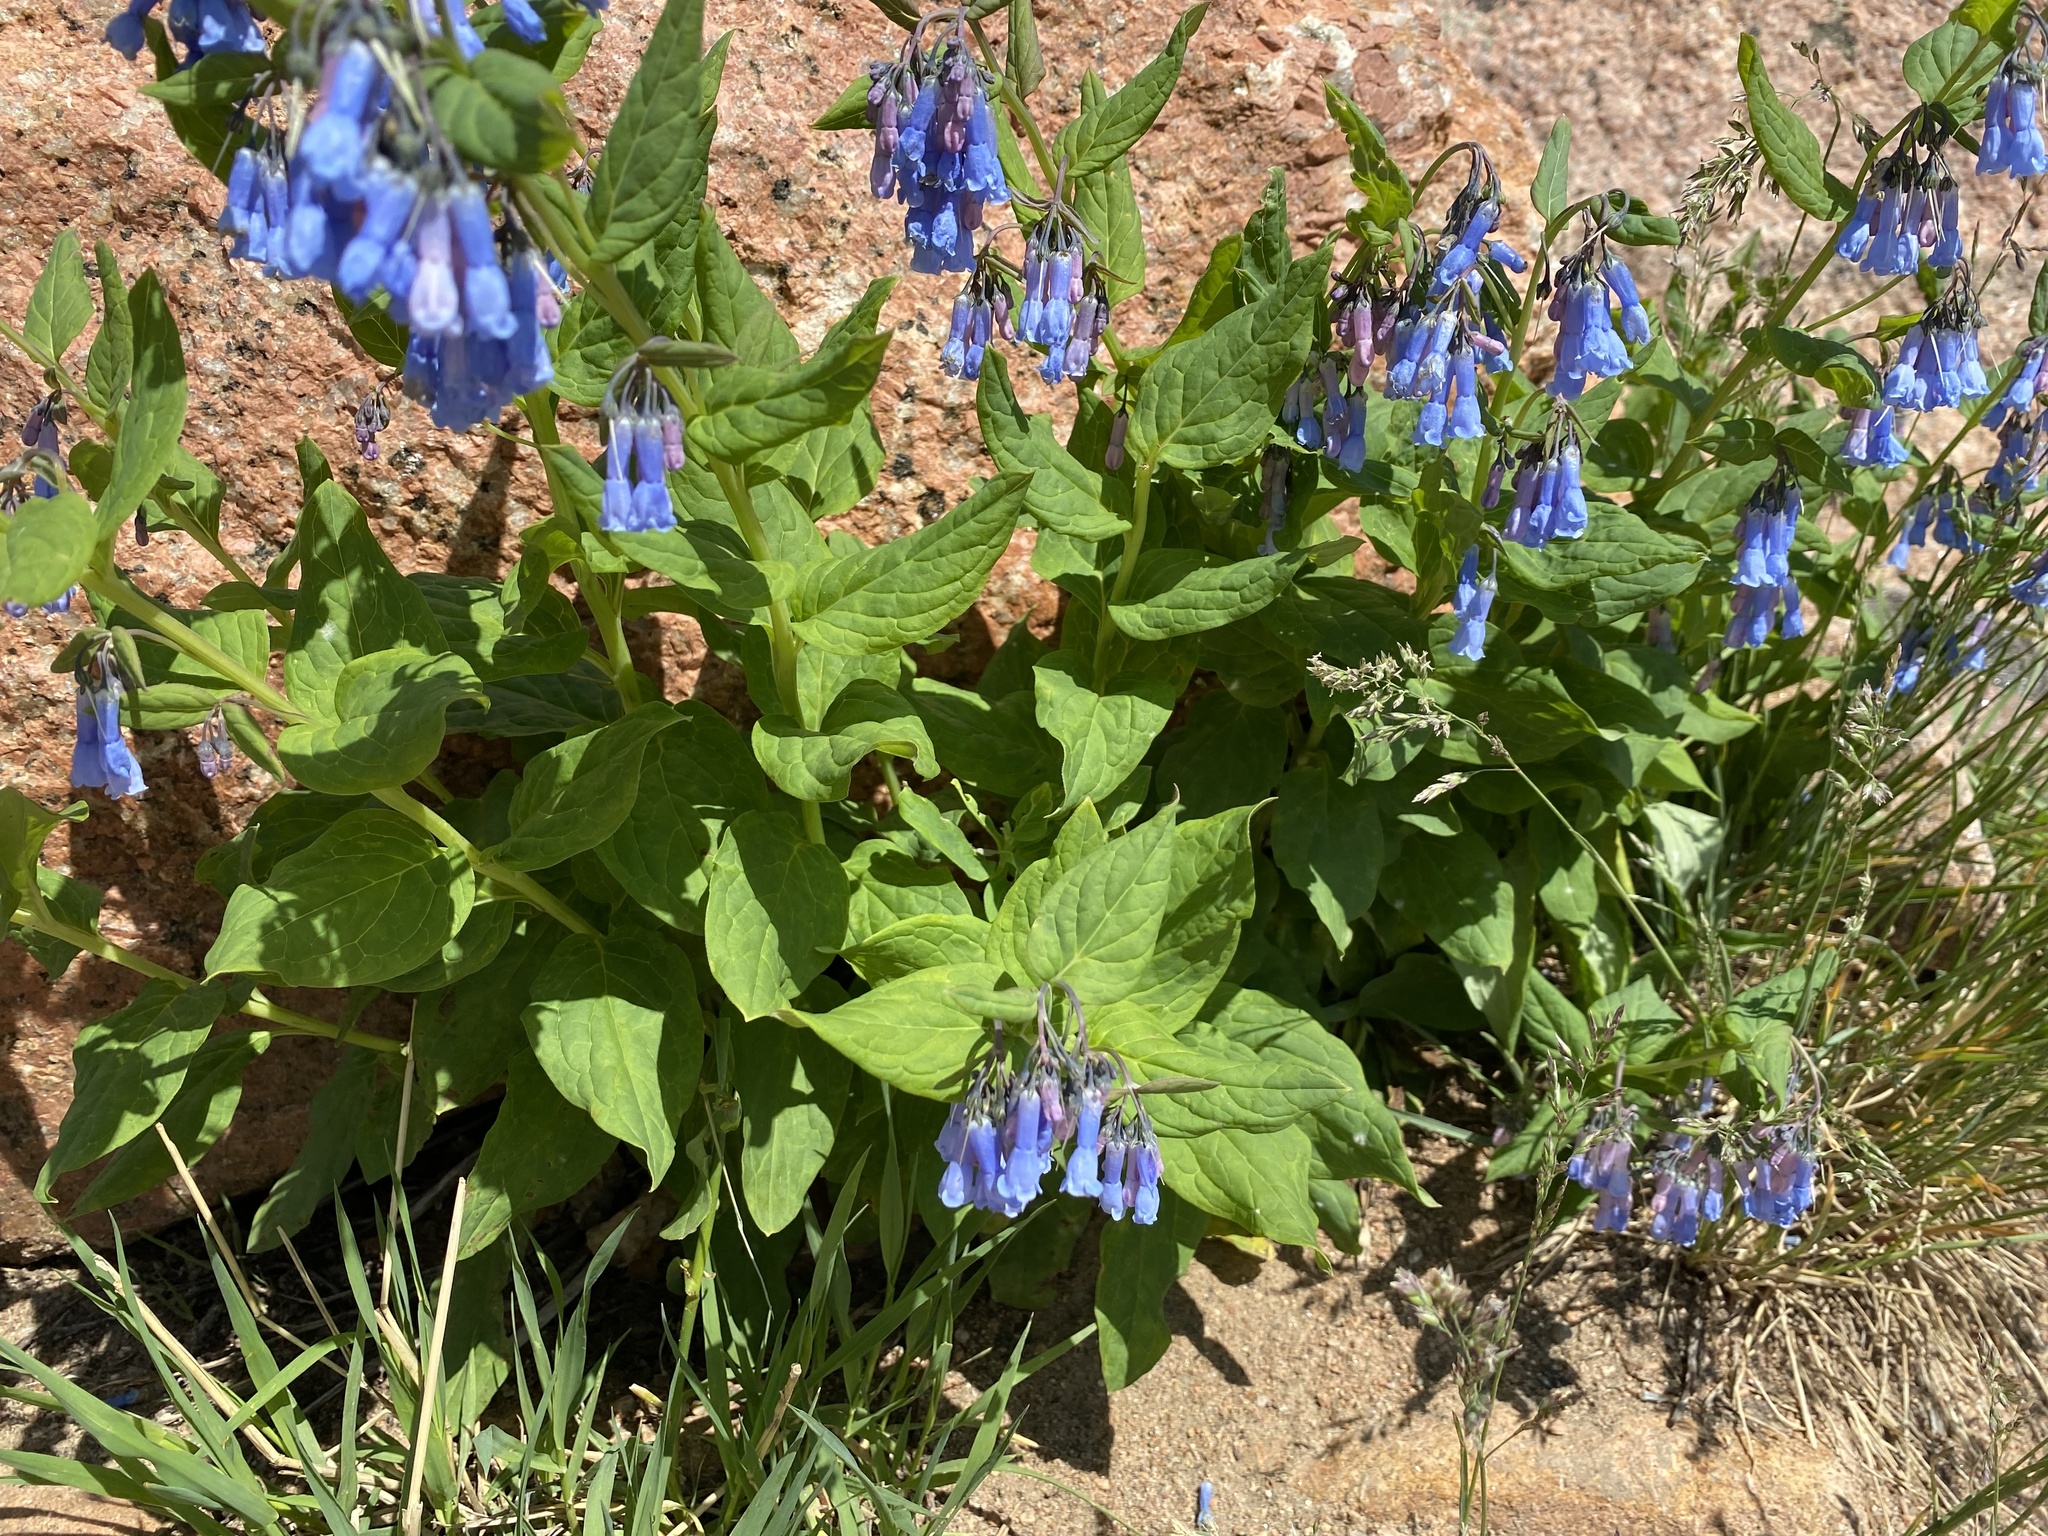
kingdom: Plantae
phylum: Tracheophyta
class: Magnoliopsida
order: Boraginales
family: Boraginaceae
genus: Mertensia
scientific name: Mertensia ciliata
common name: Tall chiming-bells
